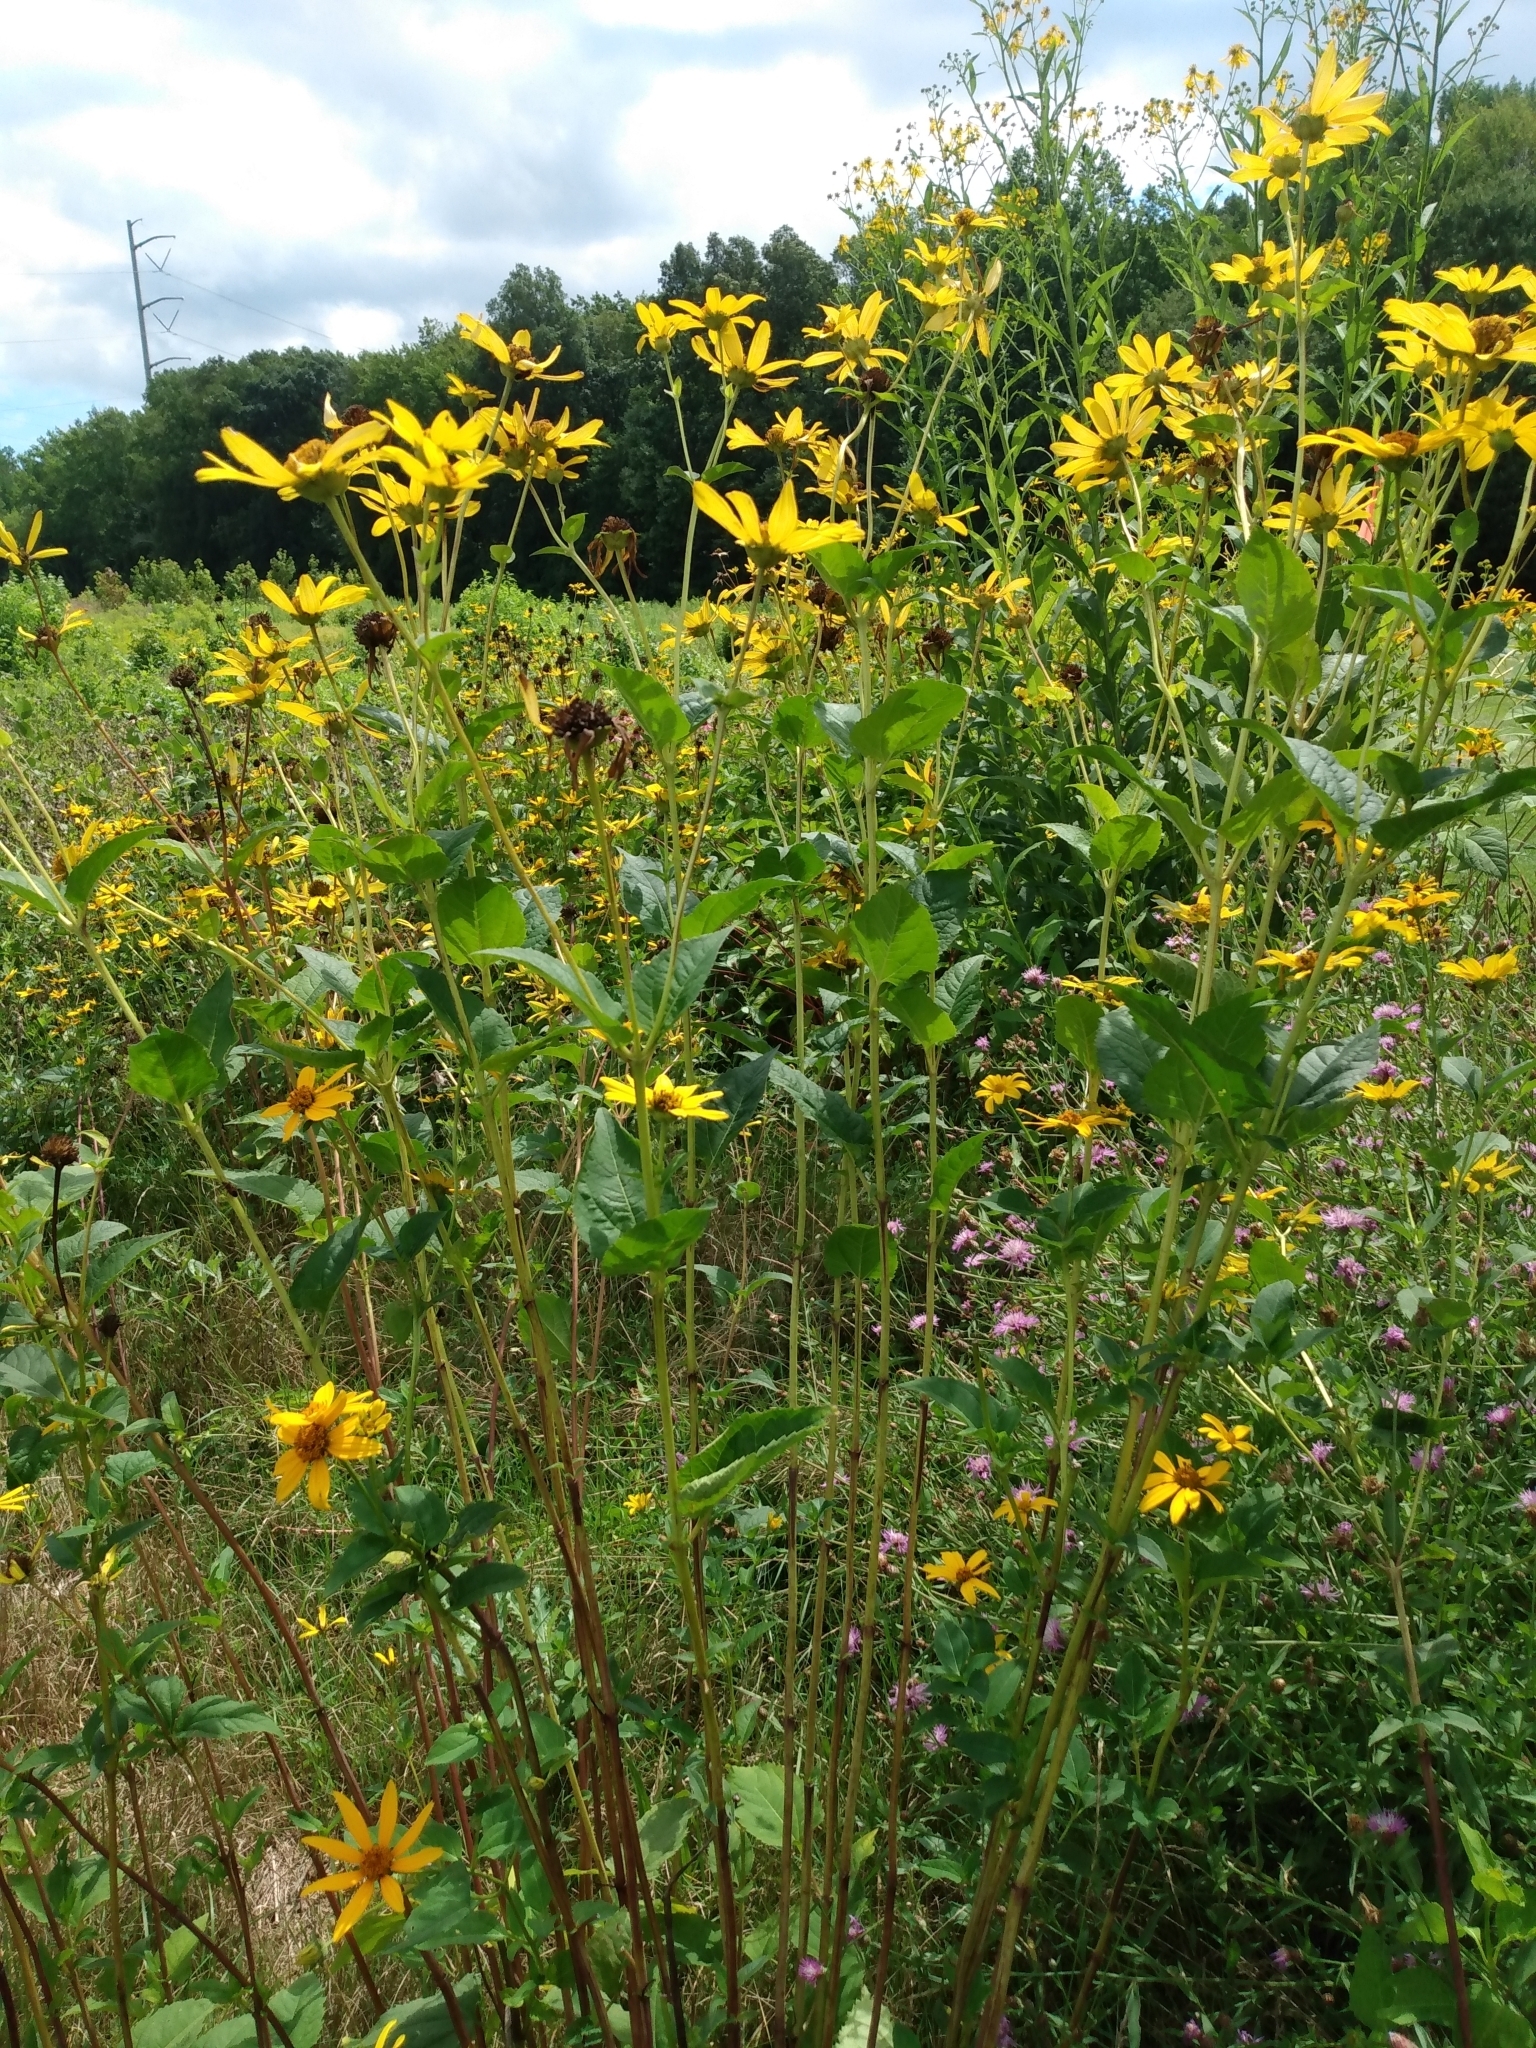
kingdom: Plantae
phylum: Tracheophyta
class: Magnoliopsida
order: Asterales
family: Asteraceae
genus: Heliopsis
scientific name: Heliopsis helianthoides
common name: False sunflower
